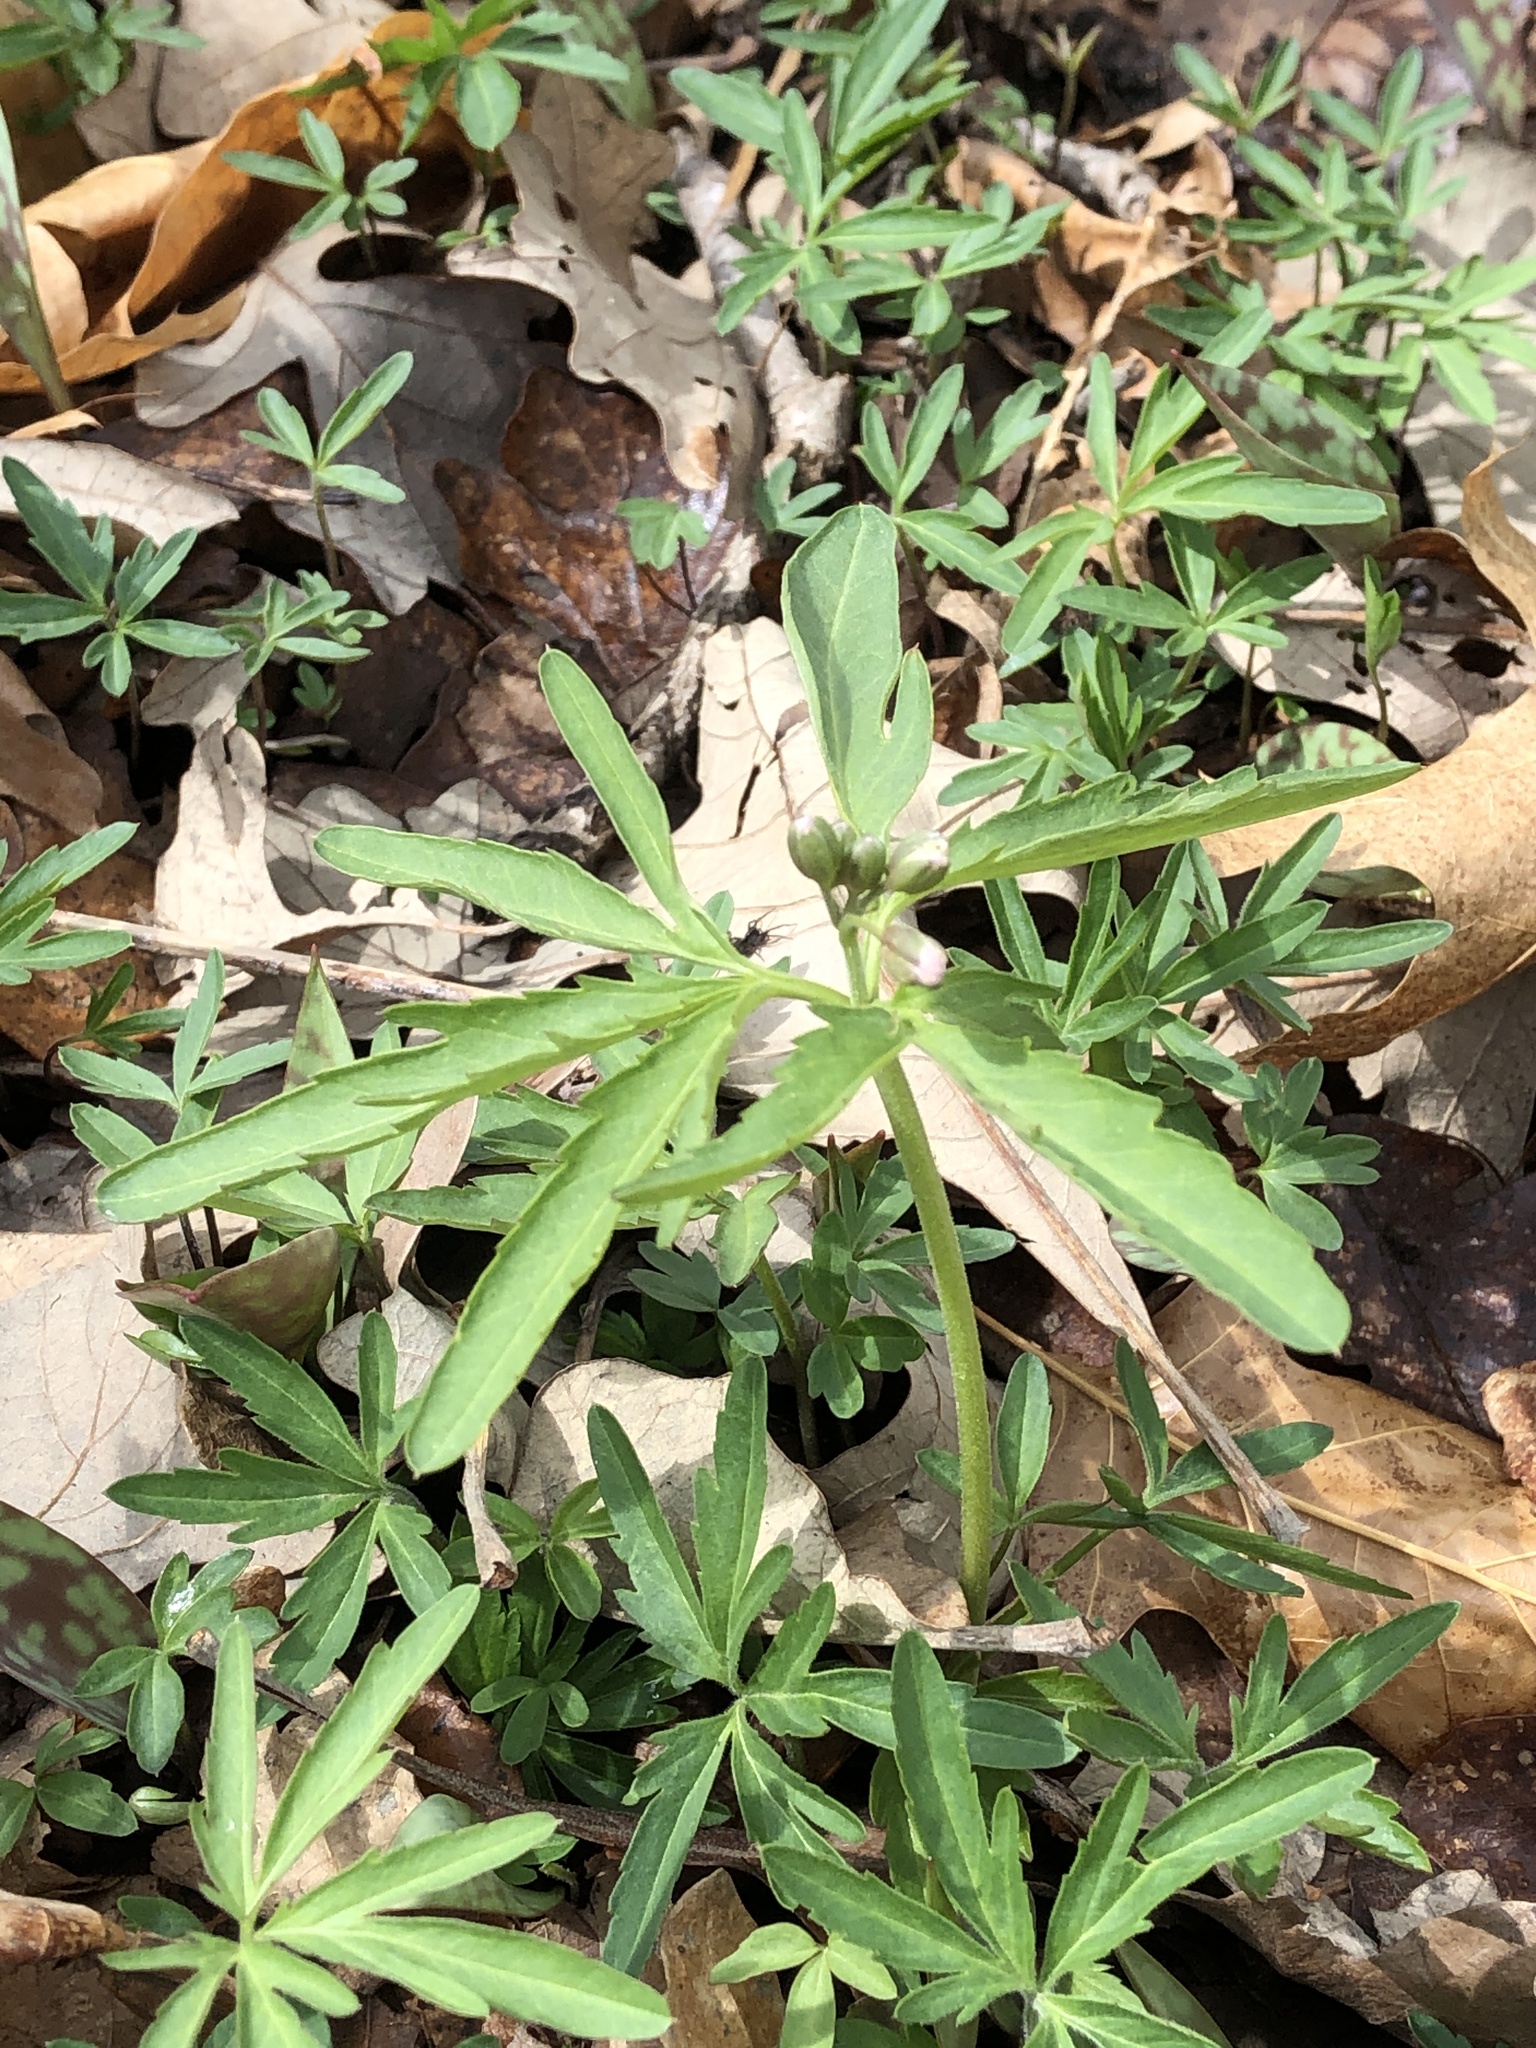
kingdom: Plantae
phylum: Tracheophyta
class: Magnoliopsida
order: Brassicales
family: Brassicaceae
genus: Cardamine
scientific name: Cardamine concatenata
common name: Cut-leaf toothcup
